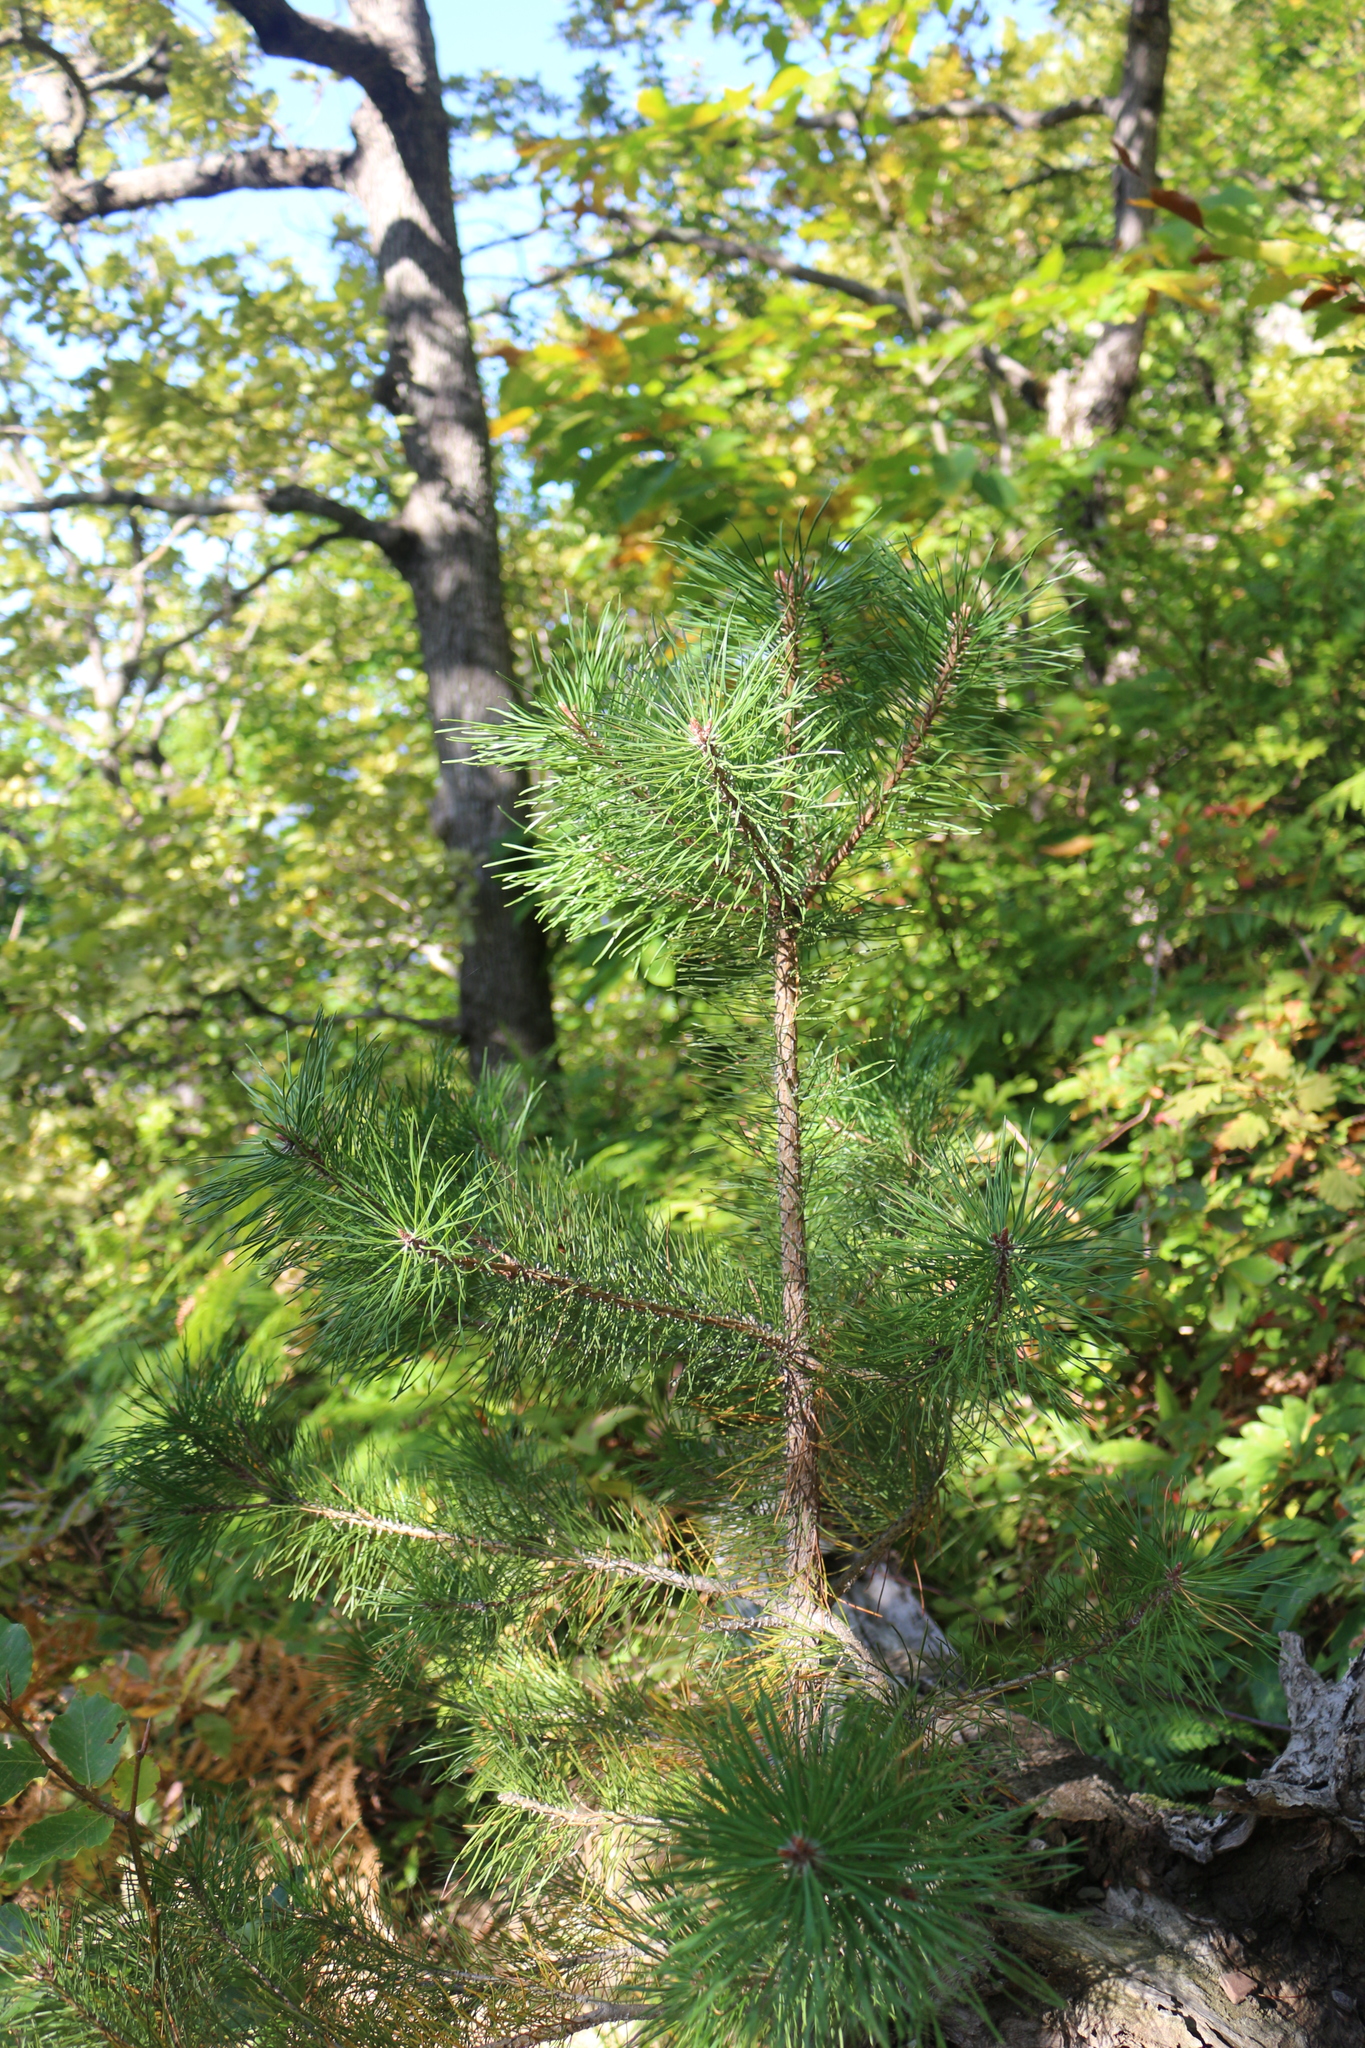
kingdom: Plantae
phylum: Tracheophyta
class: Pinopsida
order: Pinales
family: Pinaceae
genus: Pinus
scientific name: Pinus sylvestris
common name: Scots pine
